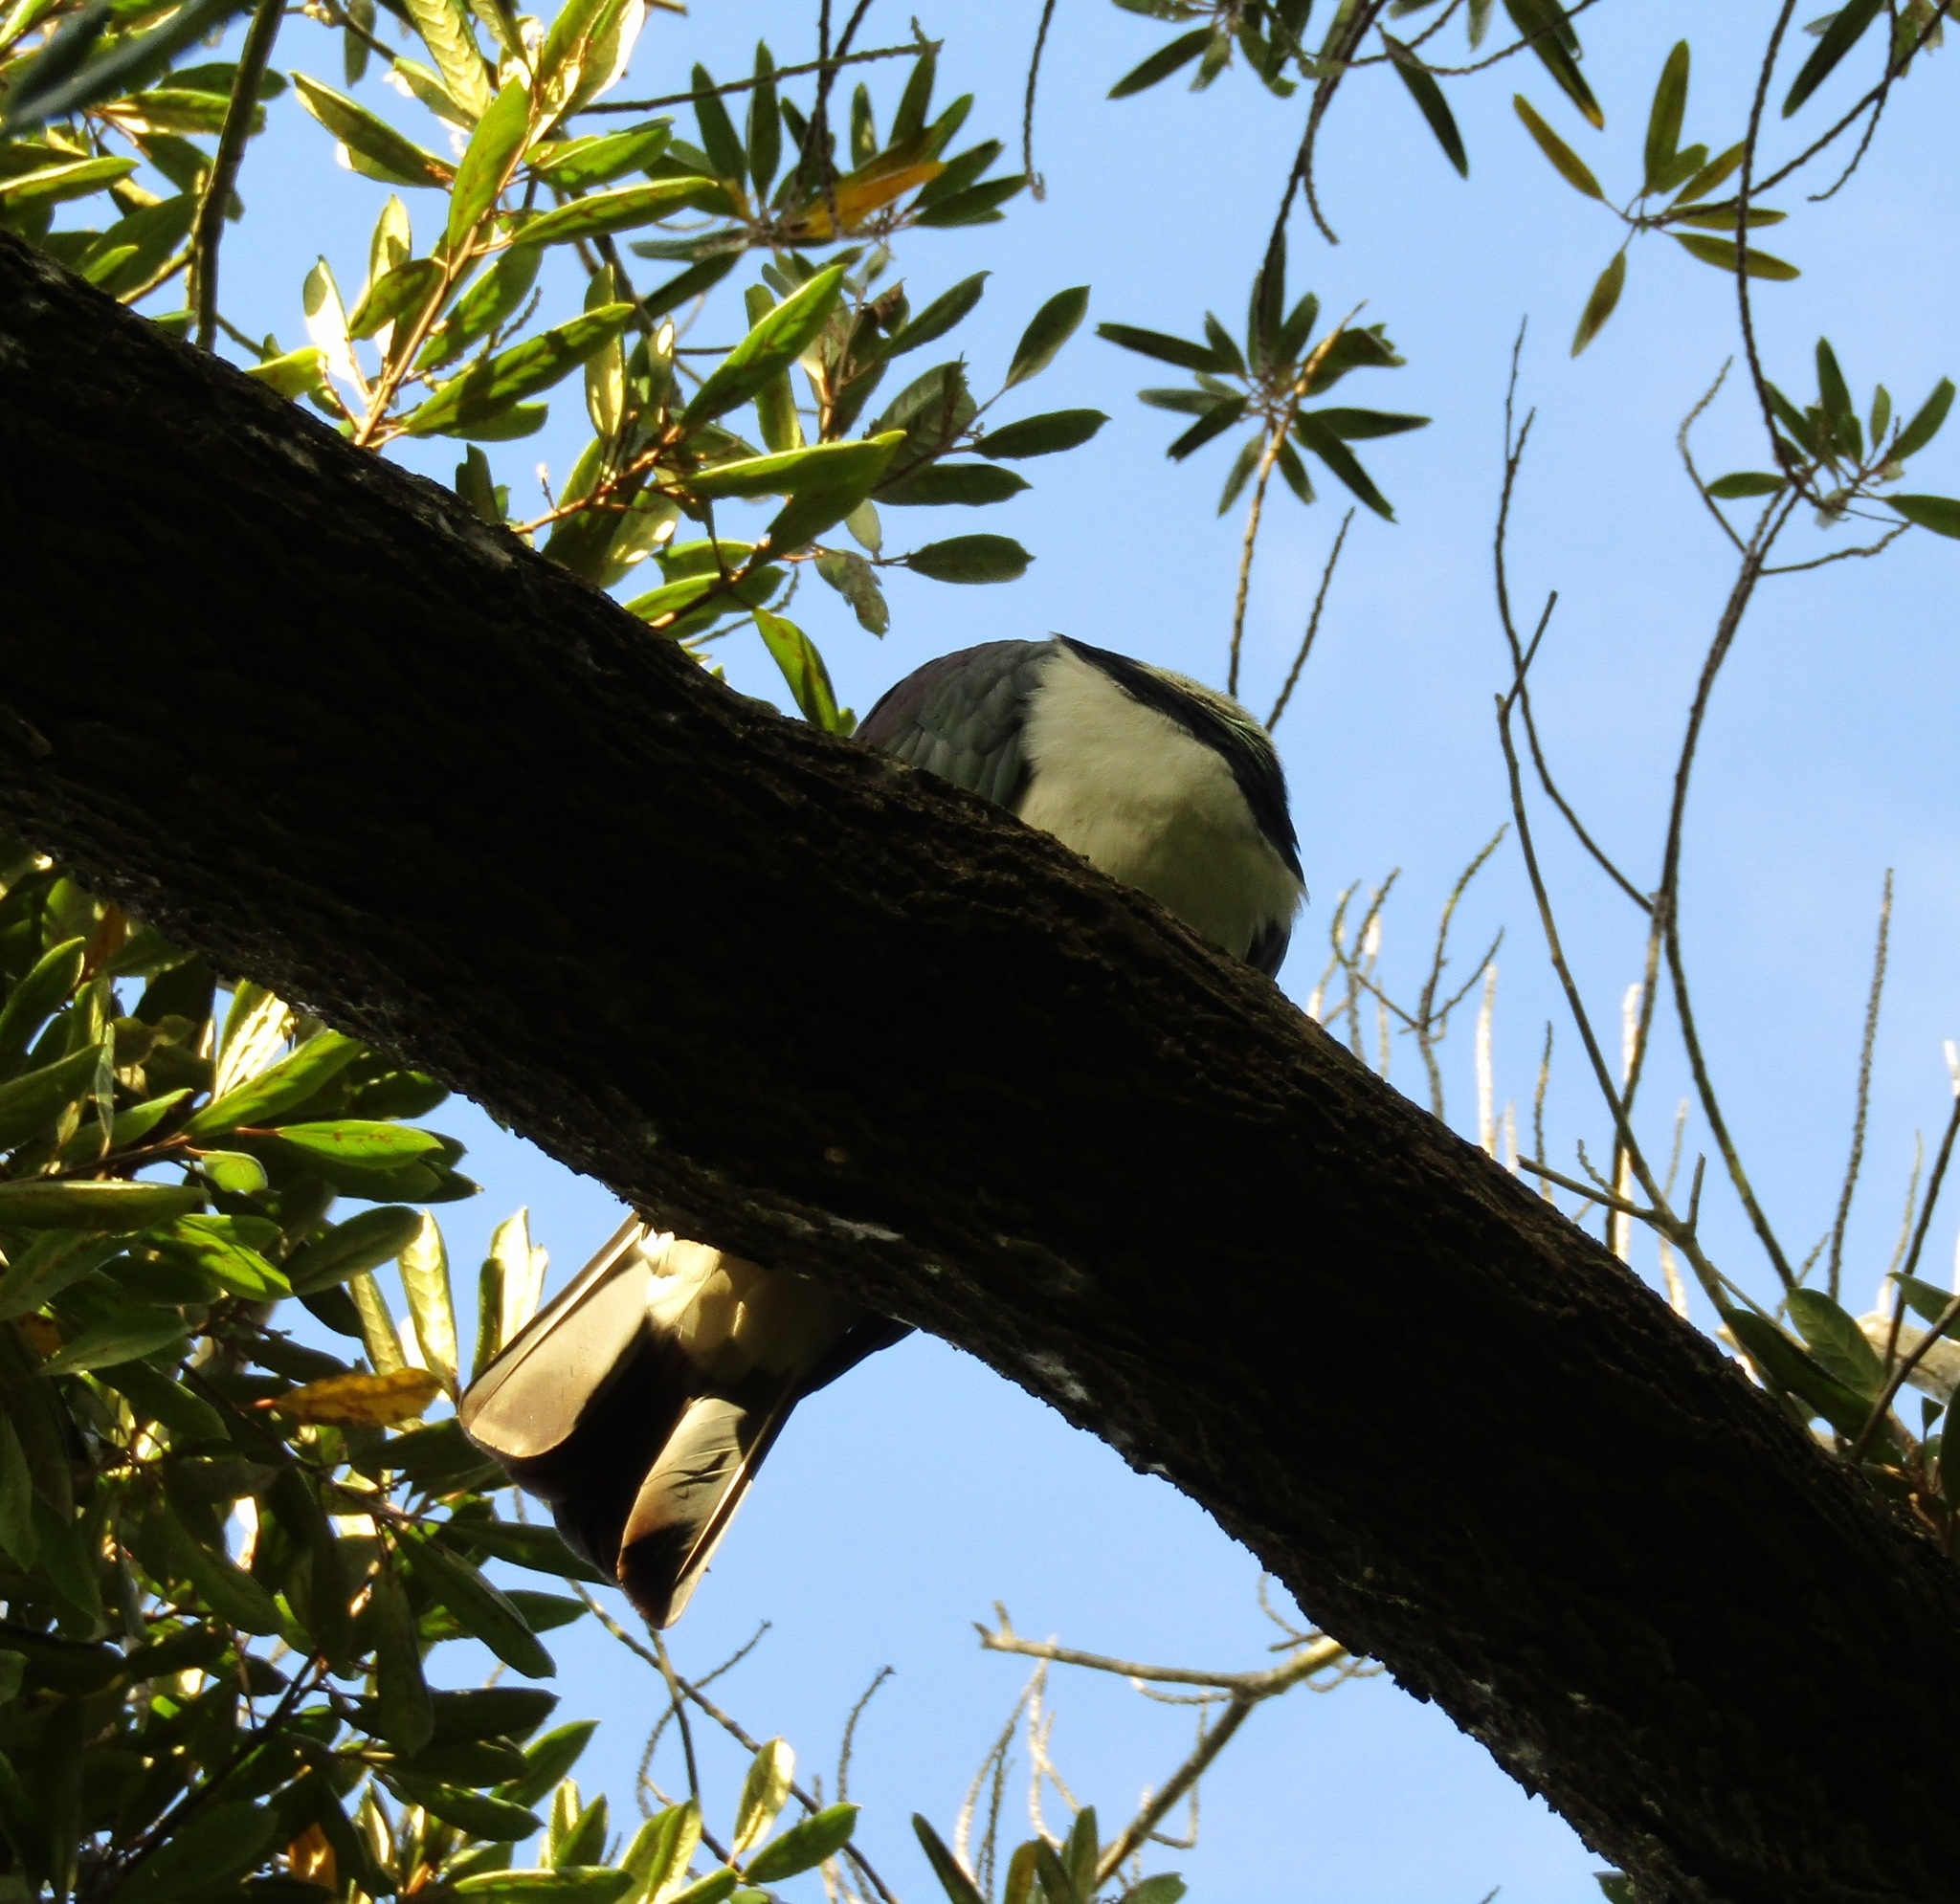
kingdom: Animalia
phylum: Chordata
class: Aves
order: Columbiformes
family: Columbidae
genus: Hemiphaga
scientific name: Hemiphaga novaeseelandiae
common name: New zealand pigeon
